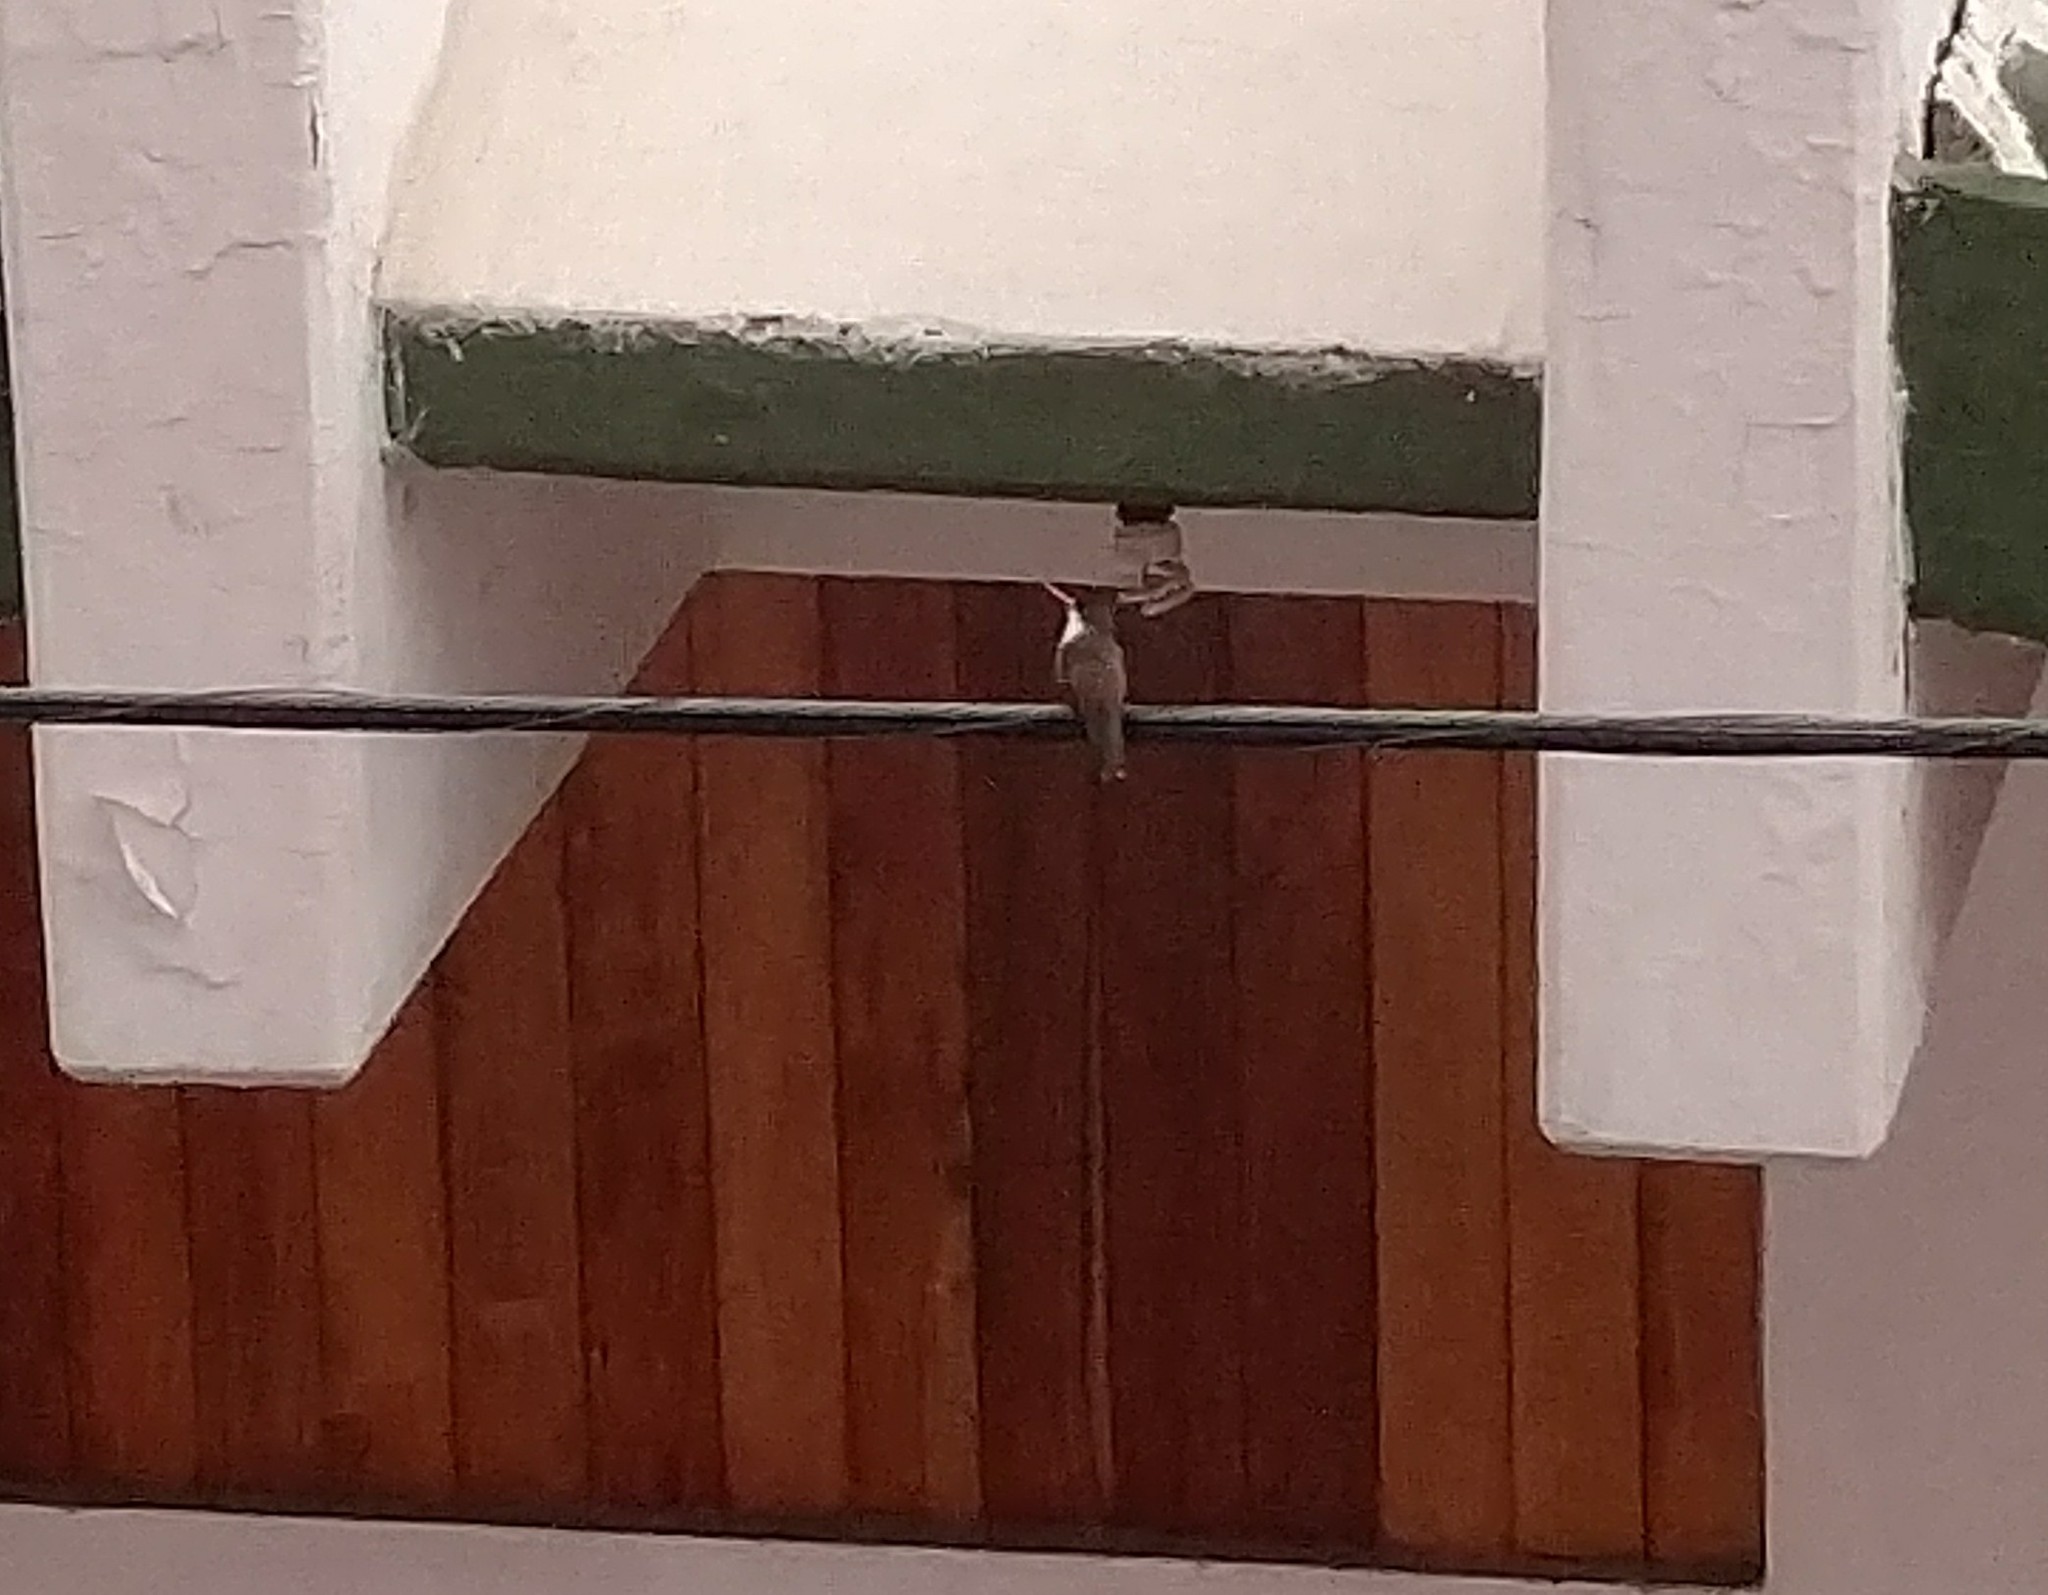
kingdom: Animalia
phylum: Chordata
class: Aves
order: Apodiformes
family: Trochilidae
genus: Leucolia
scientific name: Leucolia violiceps
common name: Violet-crowned hummingbird
